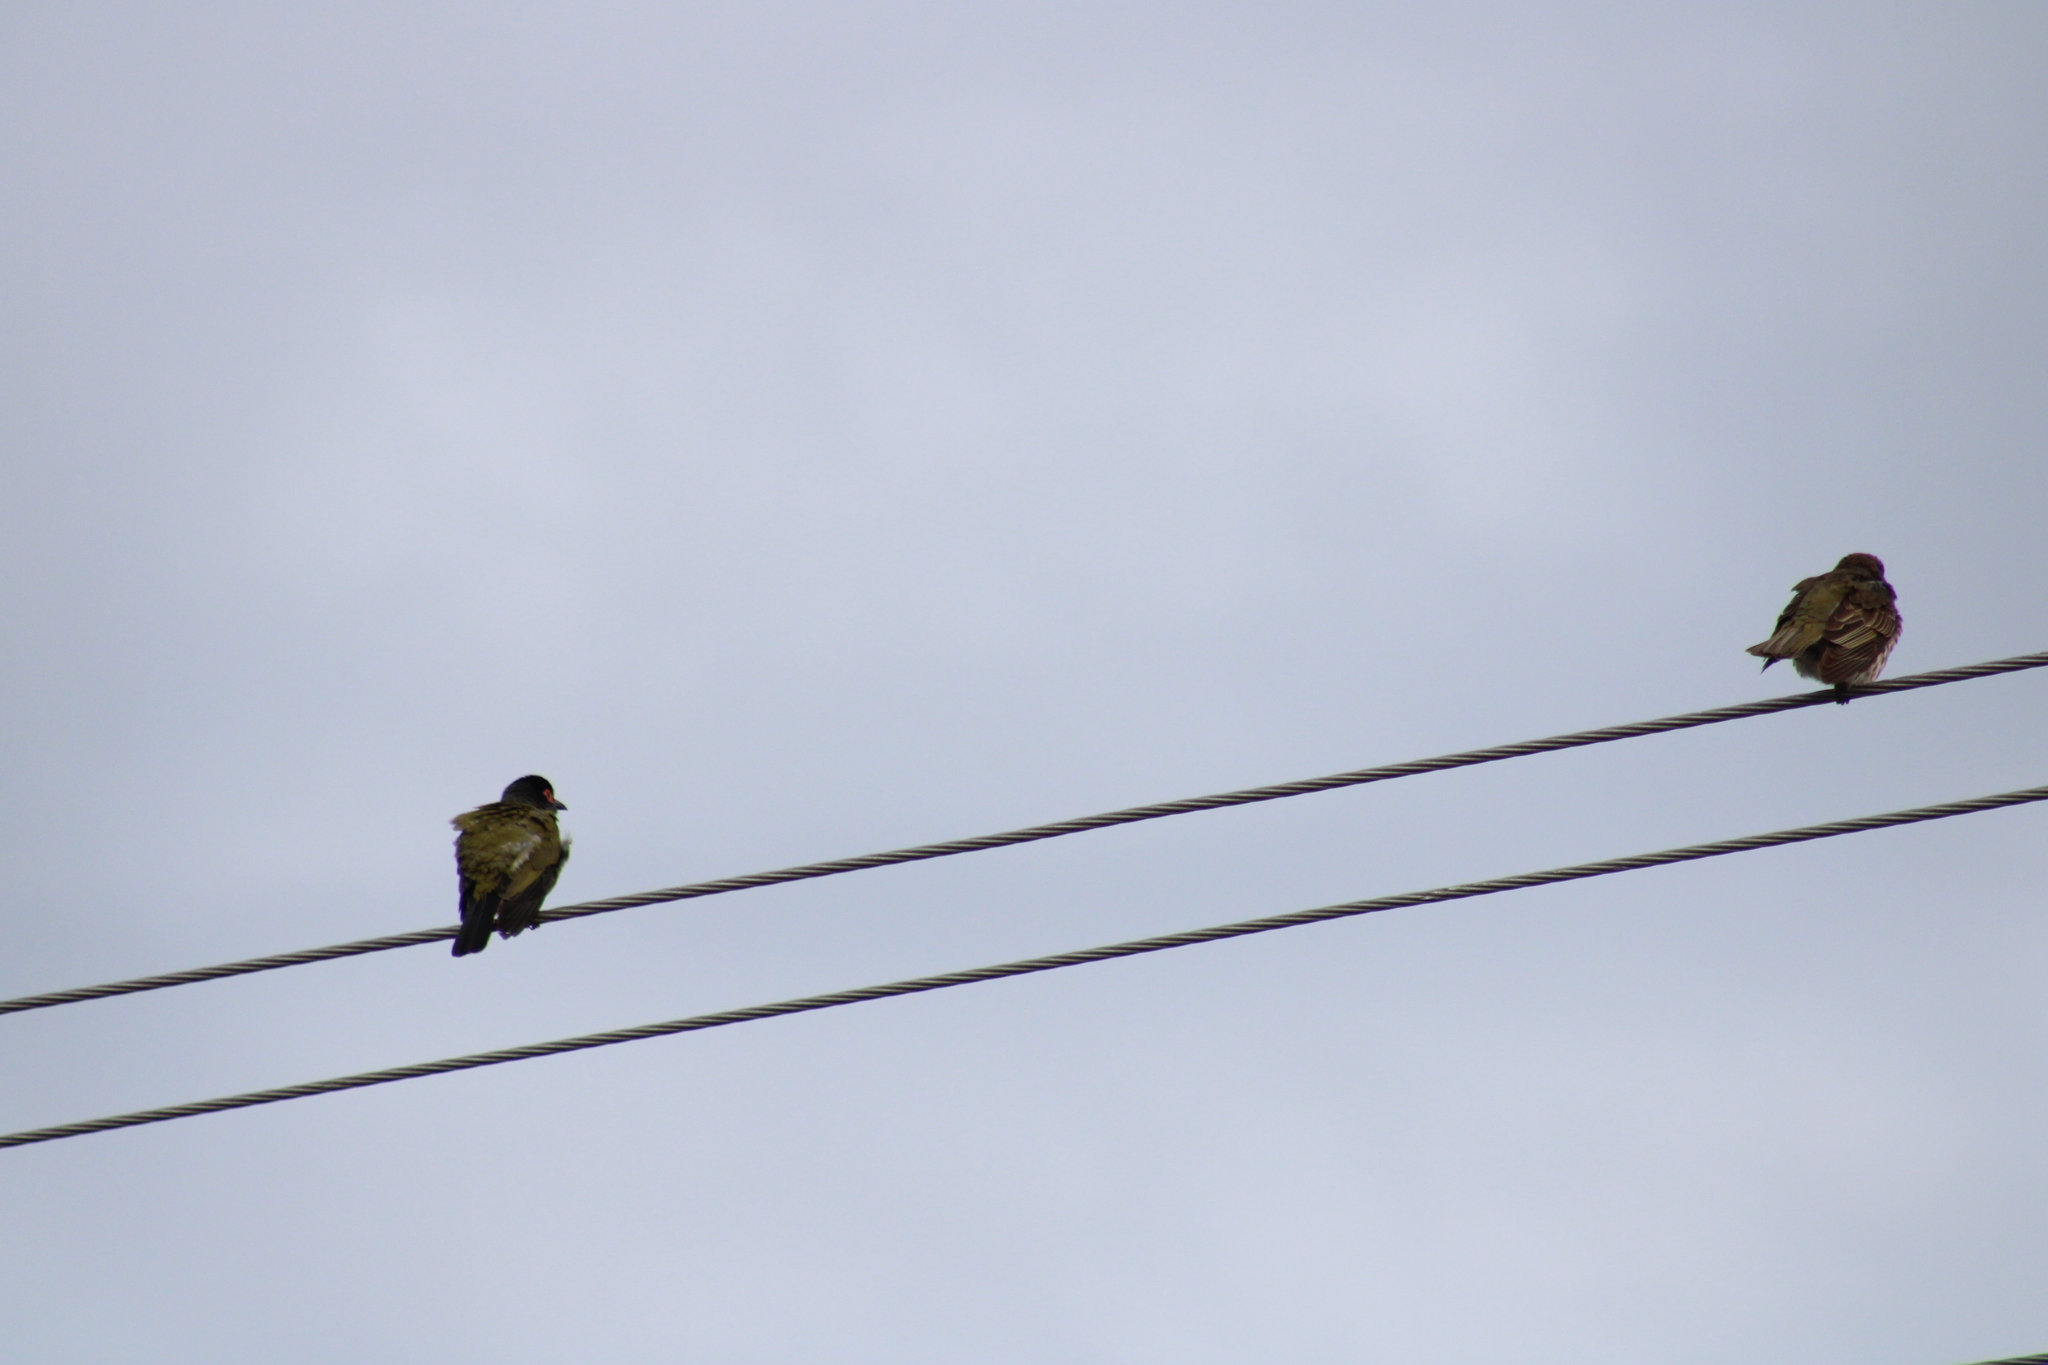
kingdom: Animalia
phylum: Chordata
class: Aves
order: Passeriformes
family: Oriolidae
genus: Sphecotheres
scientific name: Sphecotheres vieilloti
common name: Australasian figbird
